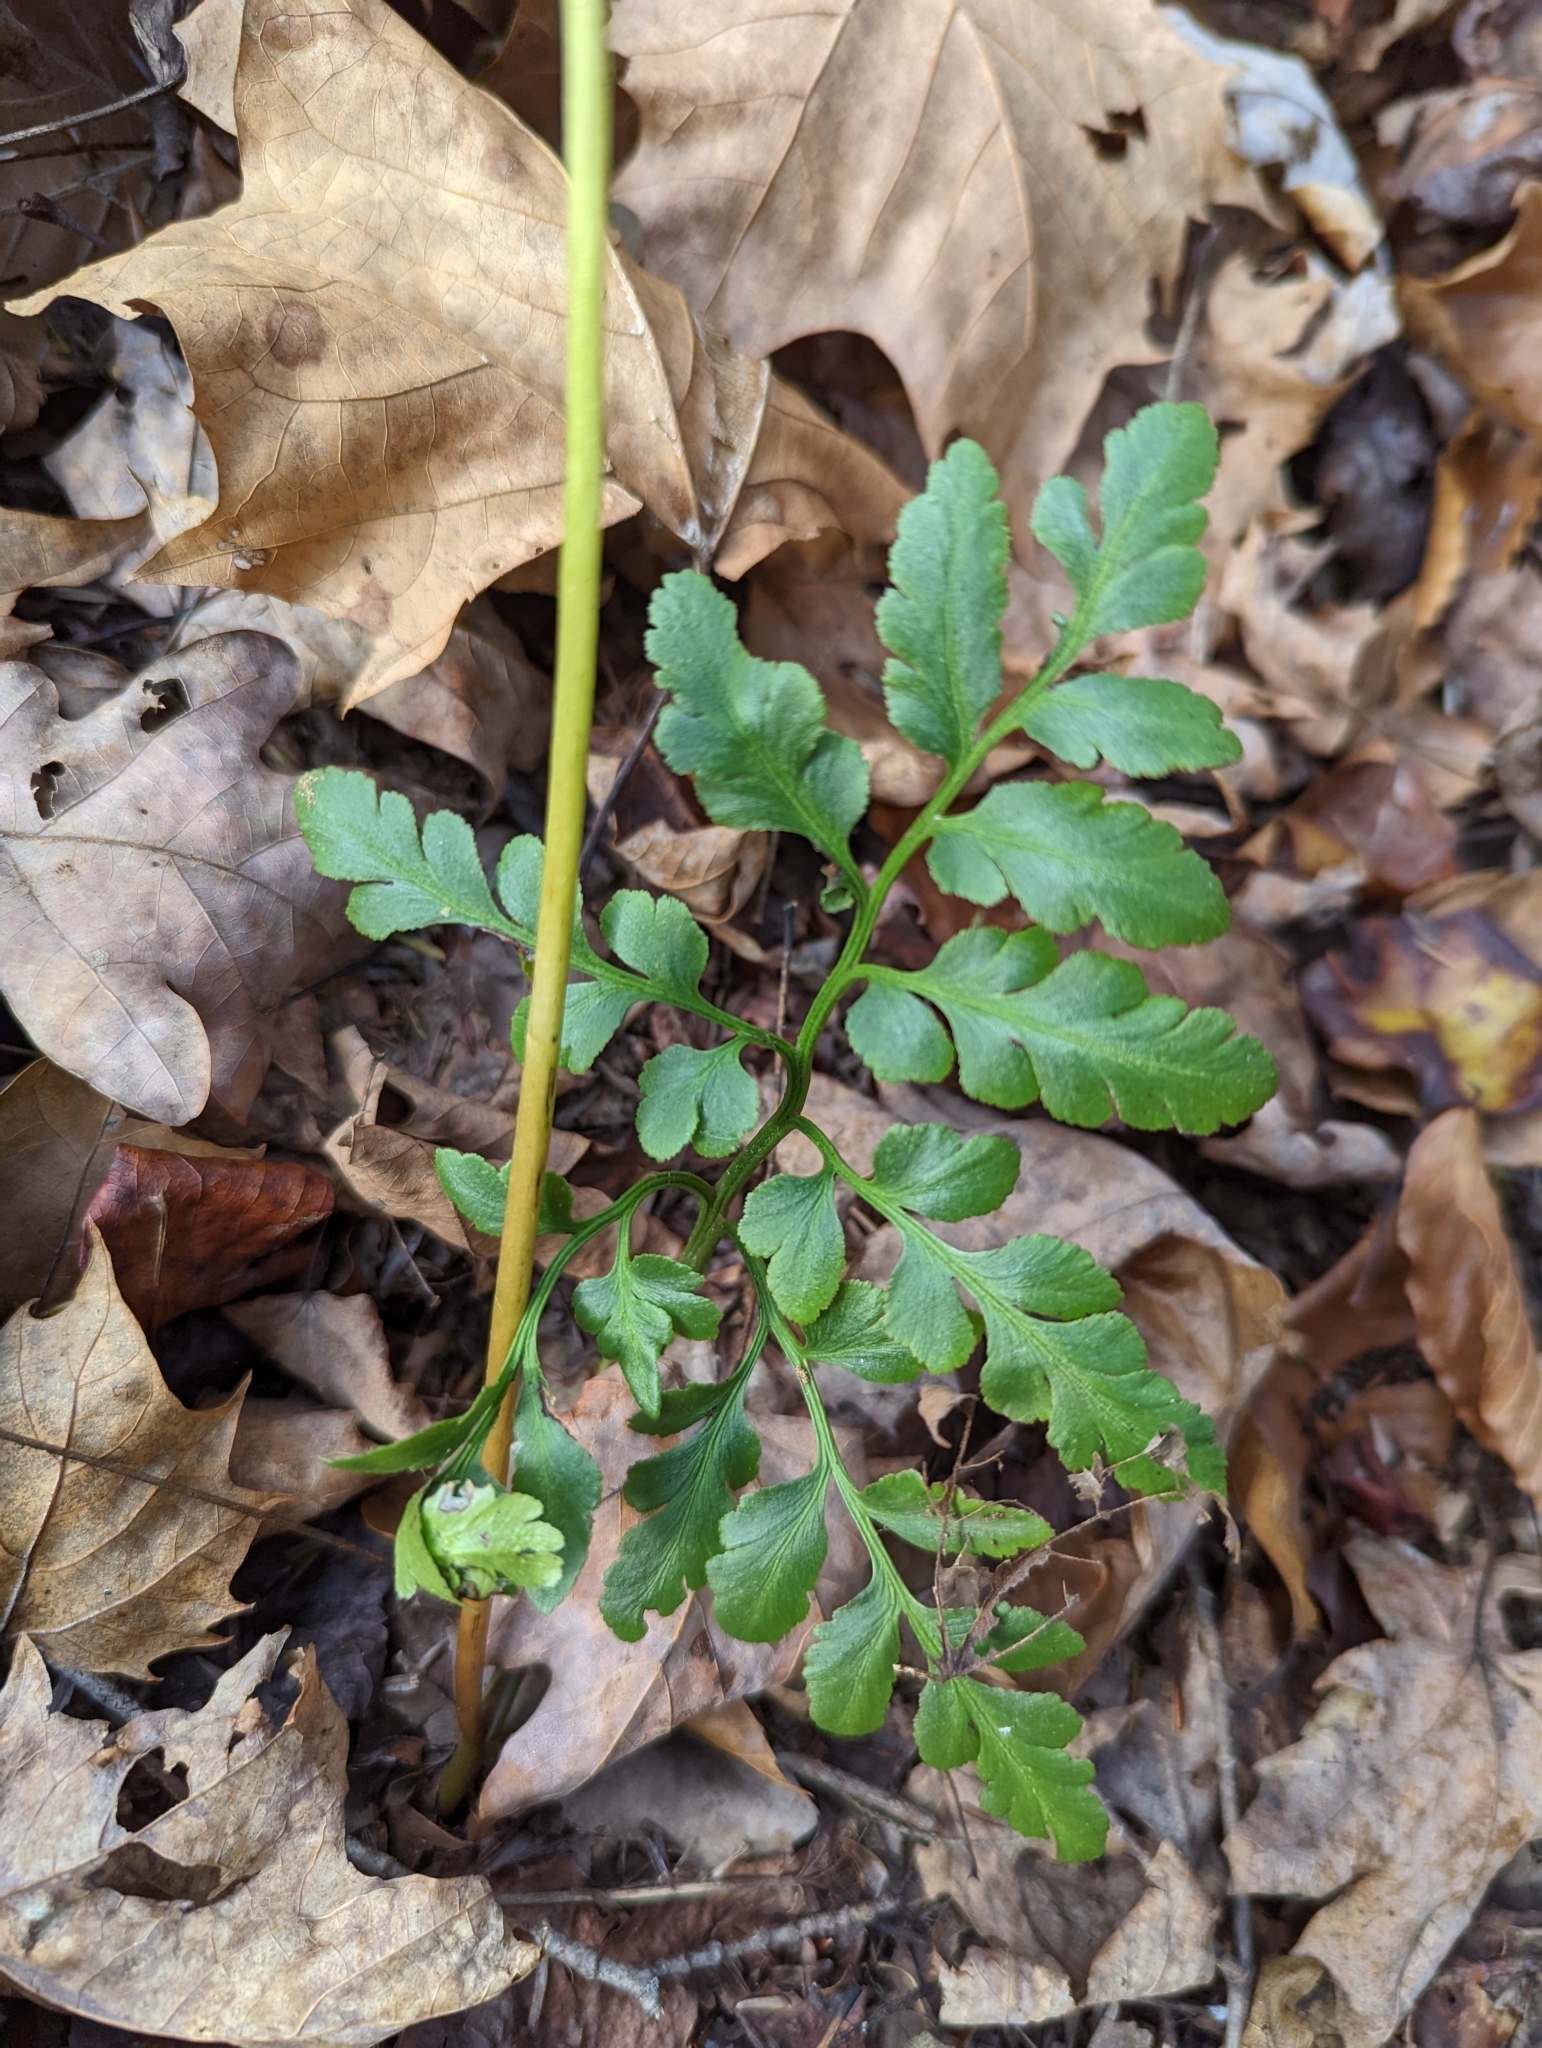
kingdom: Plantae
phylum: Tracheophyta
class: Polypodiopsida
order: Ophioglossales
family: Ophioglossaceae
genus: Sceptridium
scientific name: Sceptridium oneidense
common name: Blunt-lobed grapefern
